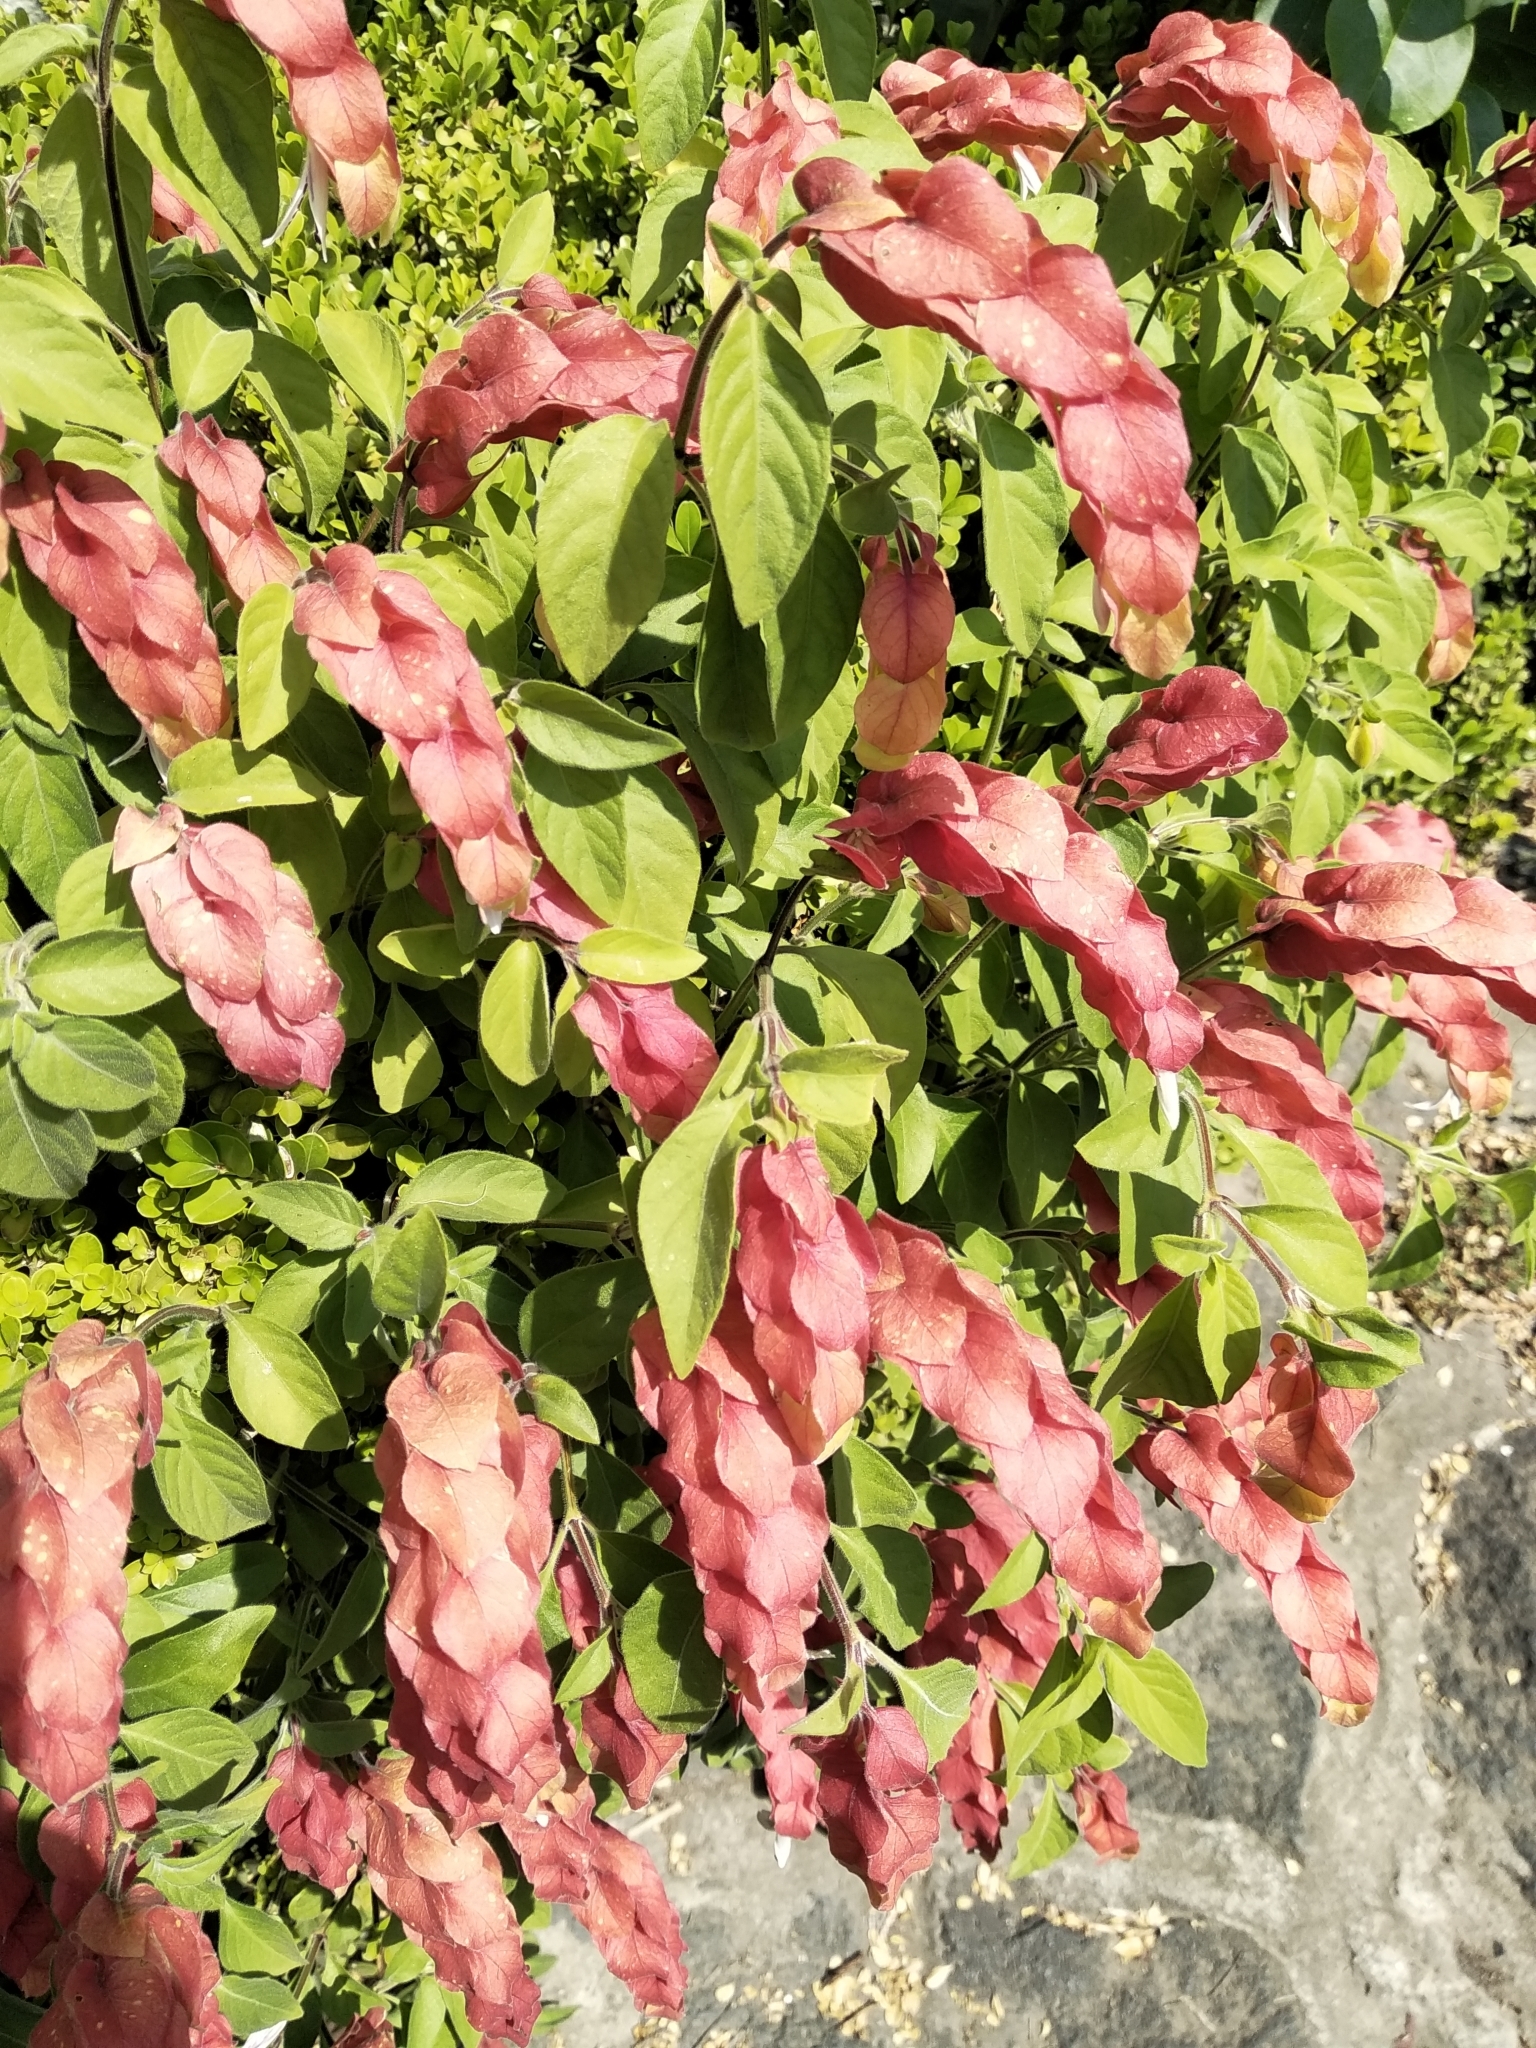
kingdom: Plantae
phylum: Tracheophyta
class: Magnoliopsida
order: Lamiales
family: Acanthaceae
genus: Justicia
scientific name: Justicia brandegeeana
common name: Shrimpplant
